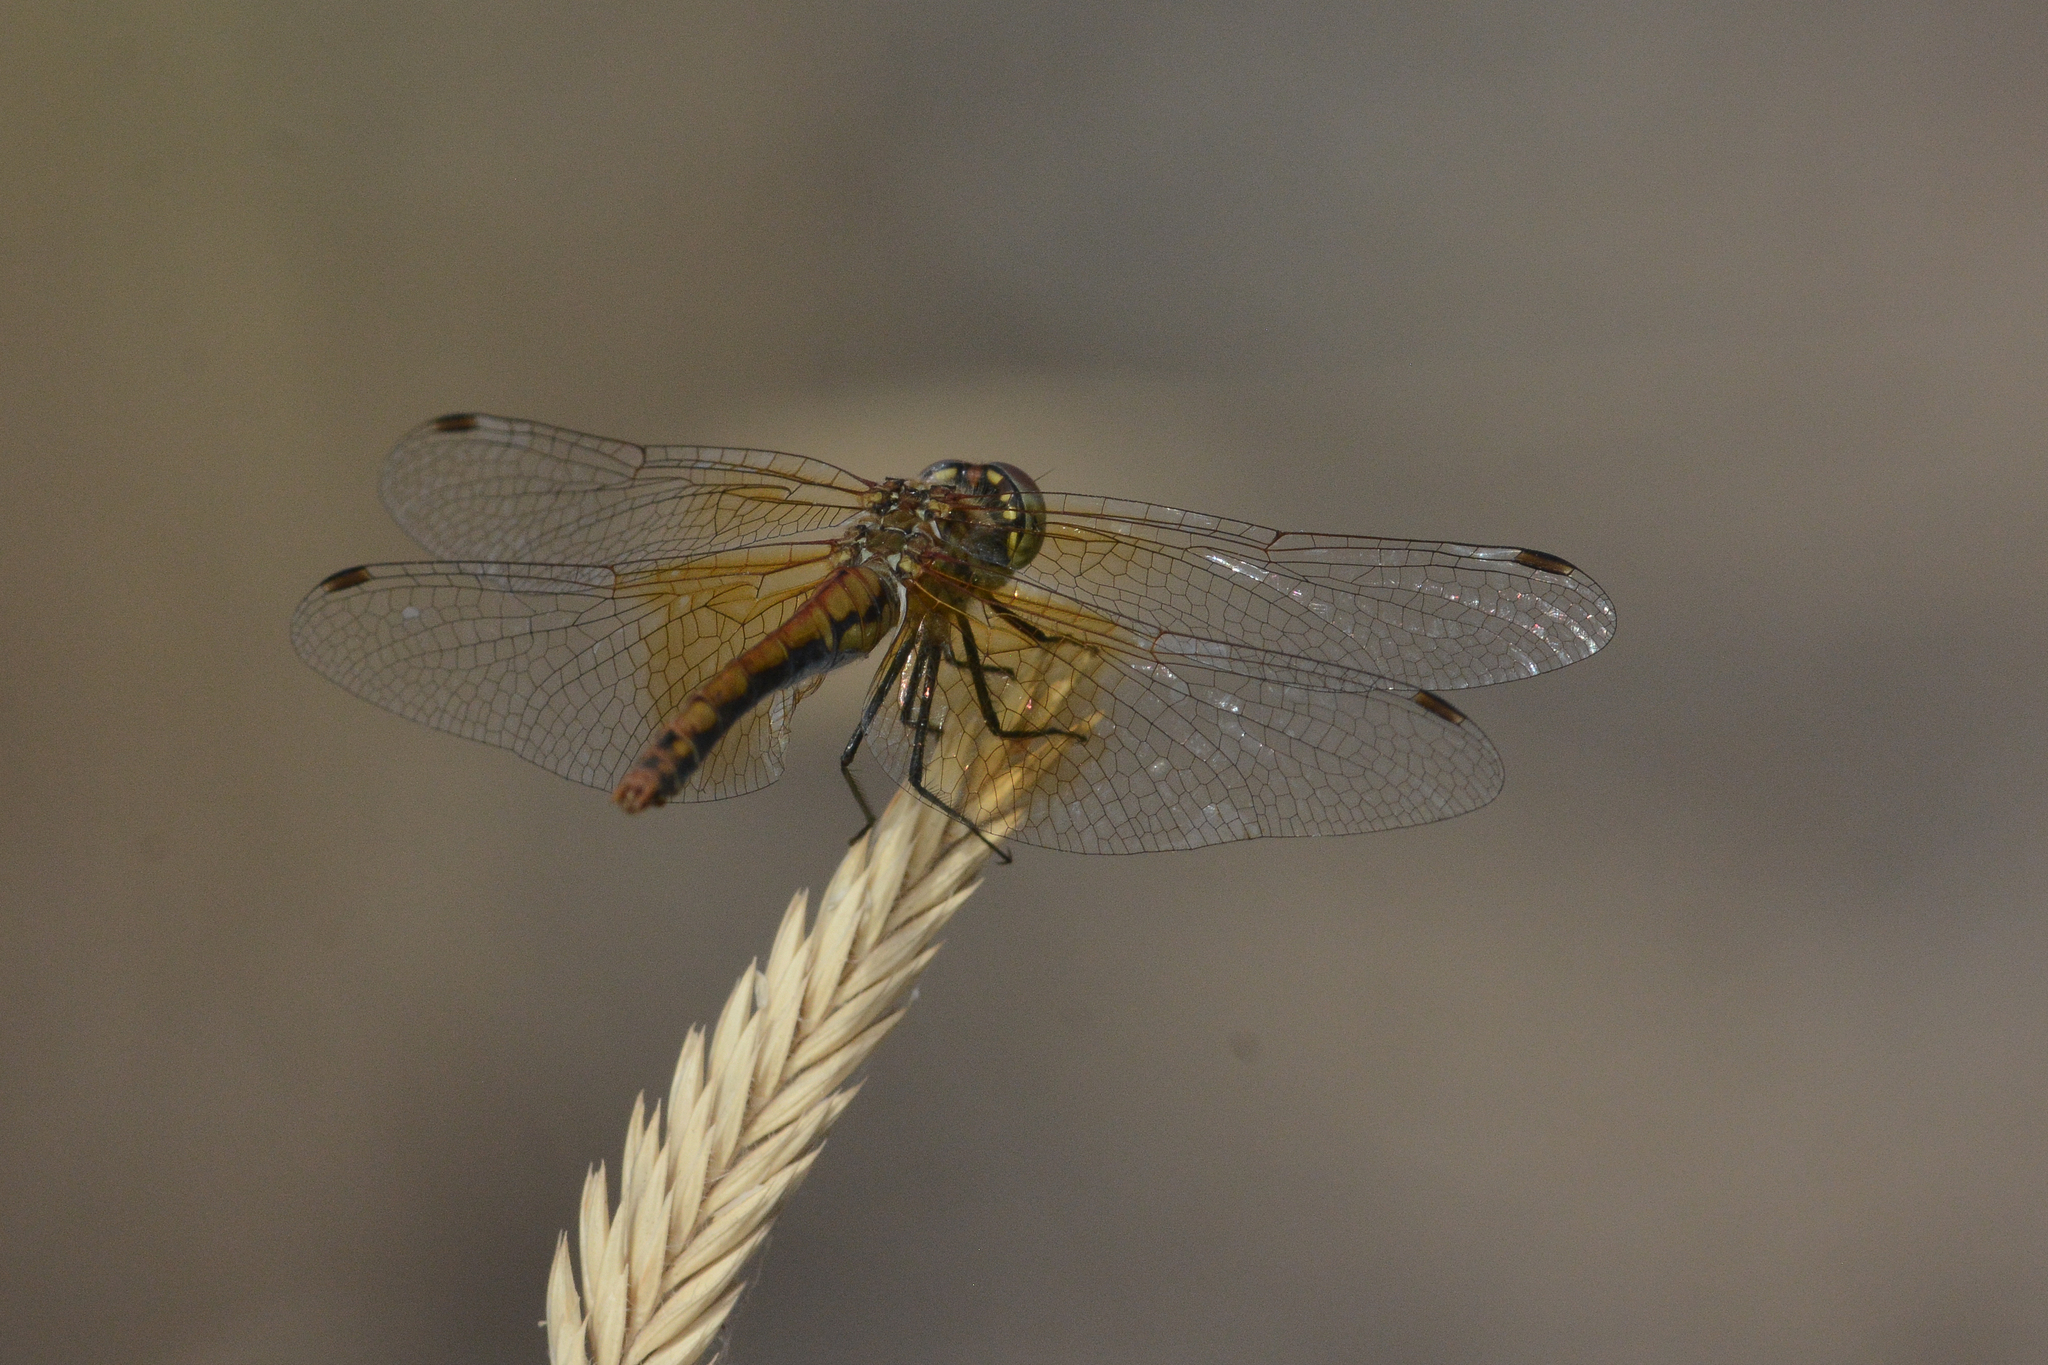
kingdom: Animalia
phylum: Arthropoda
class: Insecta
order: Odonata
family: Libellulidae
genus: Sympetrum
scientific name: Sympetrum semicinctum
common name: Band-winged meadowhawk
